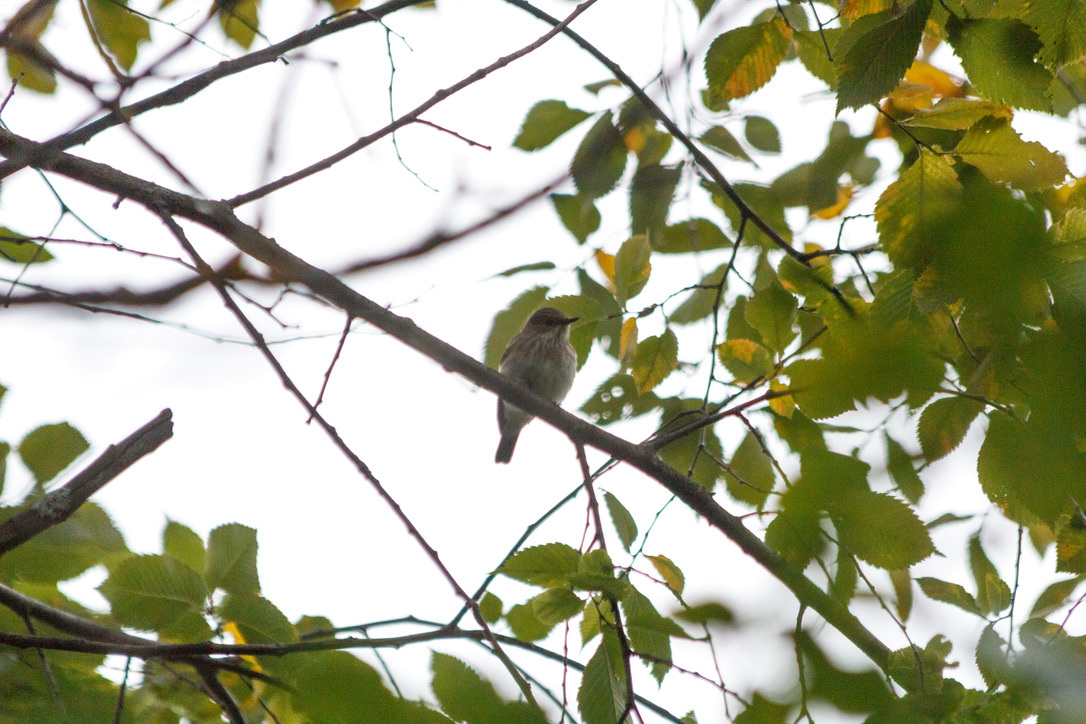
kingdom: Animalia
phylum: Chordata
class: Aves
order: Passeriformes
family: Muscicapidae
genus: Muscicapa
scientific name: Muscicapa striata
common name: Spotted flycatcher
